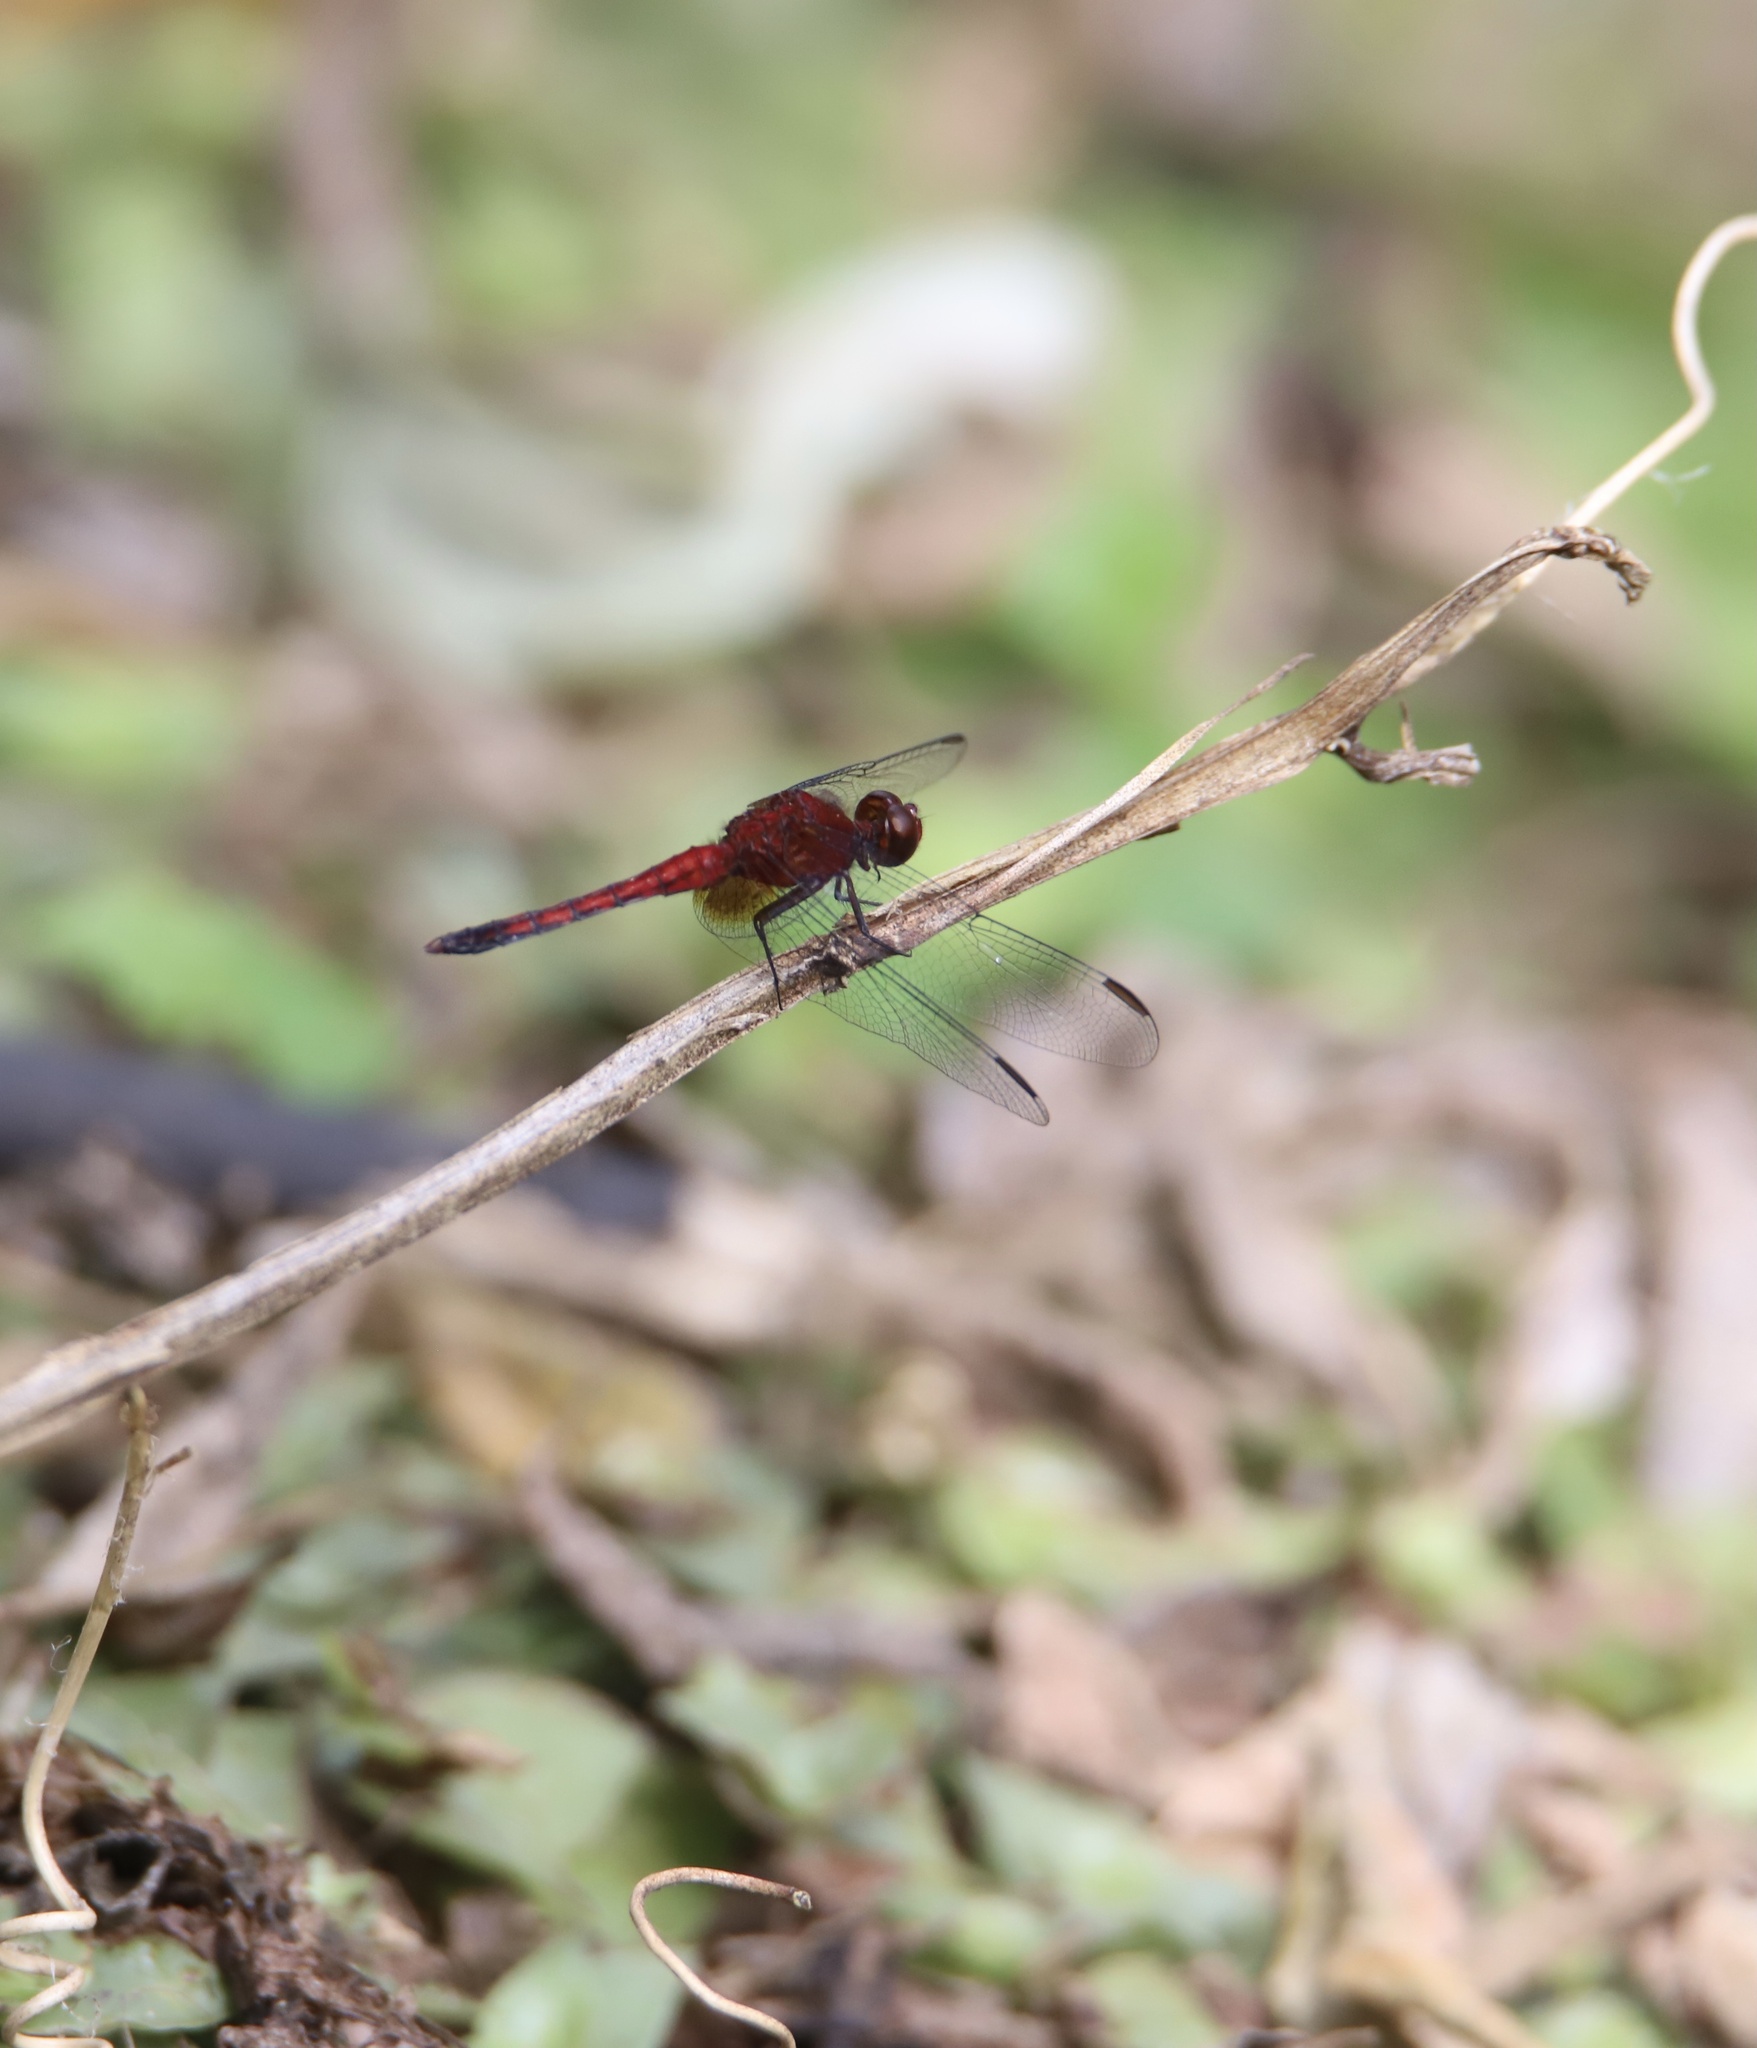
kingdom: Animalia
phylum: Arthropoda
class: Insecta
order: Odonata
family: Libellulidae
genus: Erythrodiplax
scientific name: Erythrodiplax fusca
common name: Red-faced dragonlet
